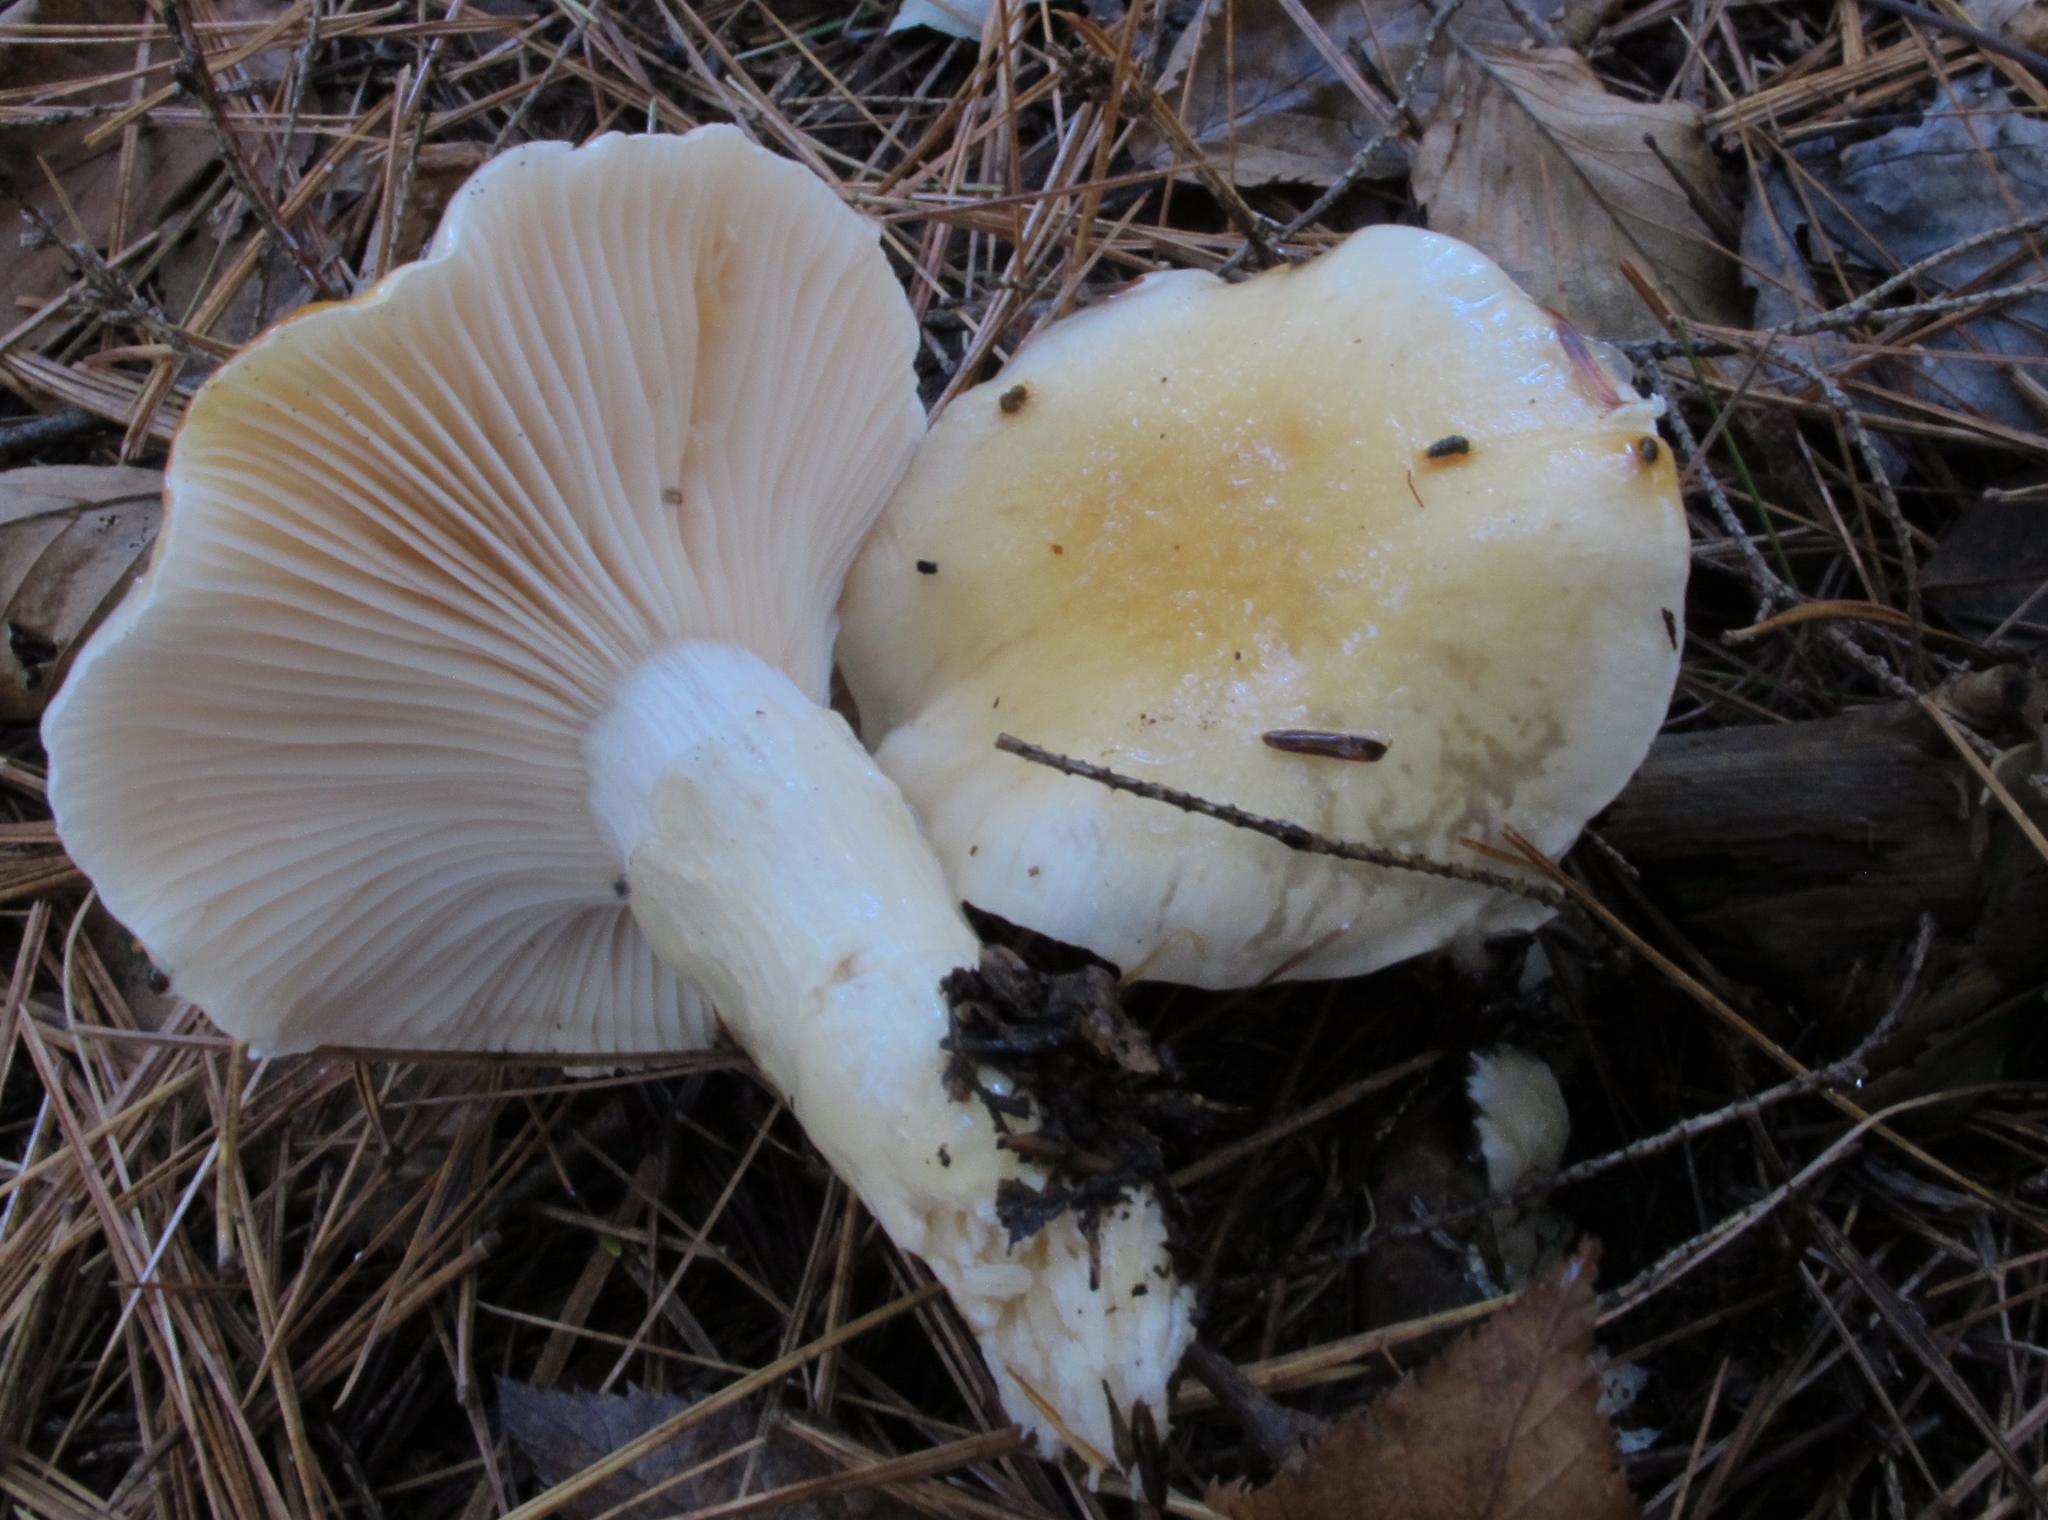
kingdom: Fungi
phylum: Basidiomycota
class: Agaricomycetes
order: Agaricales
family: Hygrophoraceae
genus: Hygrophorus
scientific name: Hygrophorus ligatus
